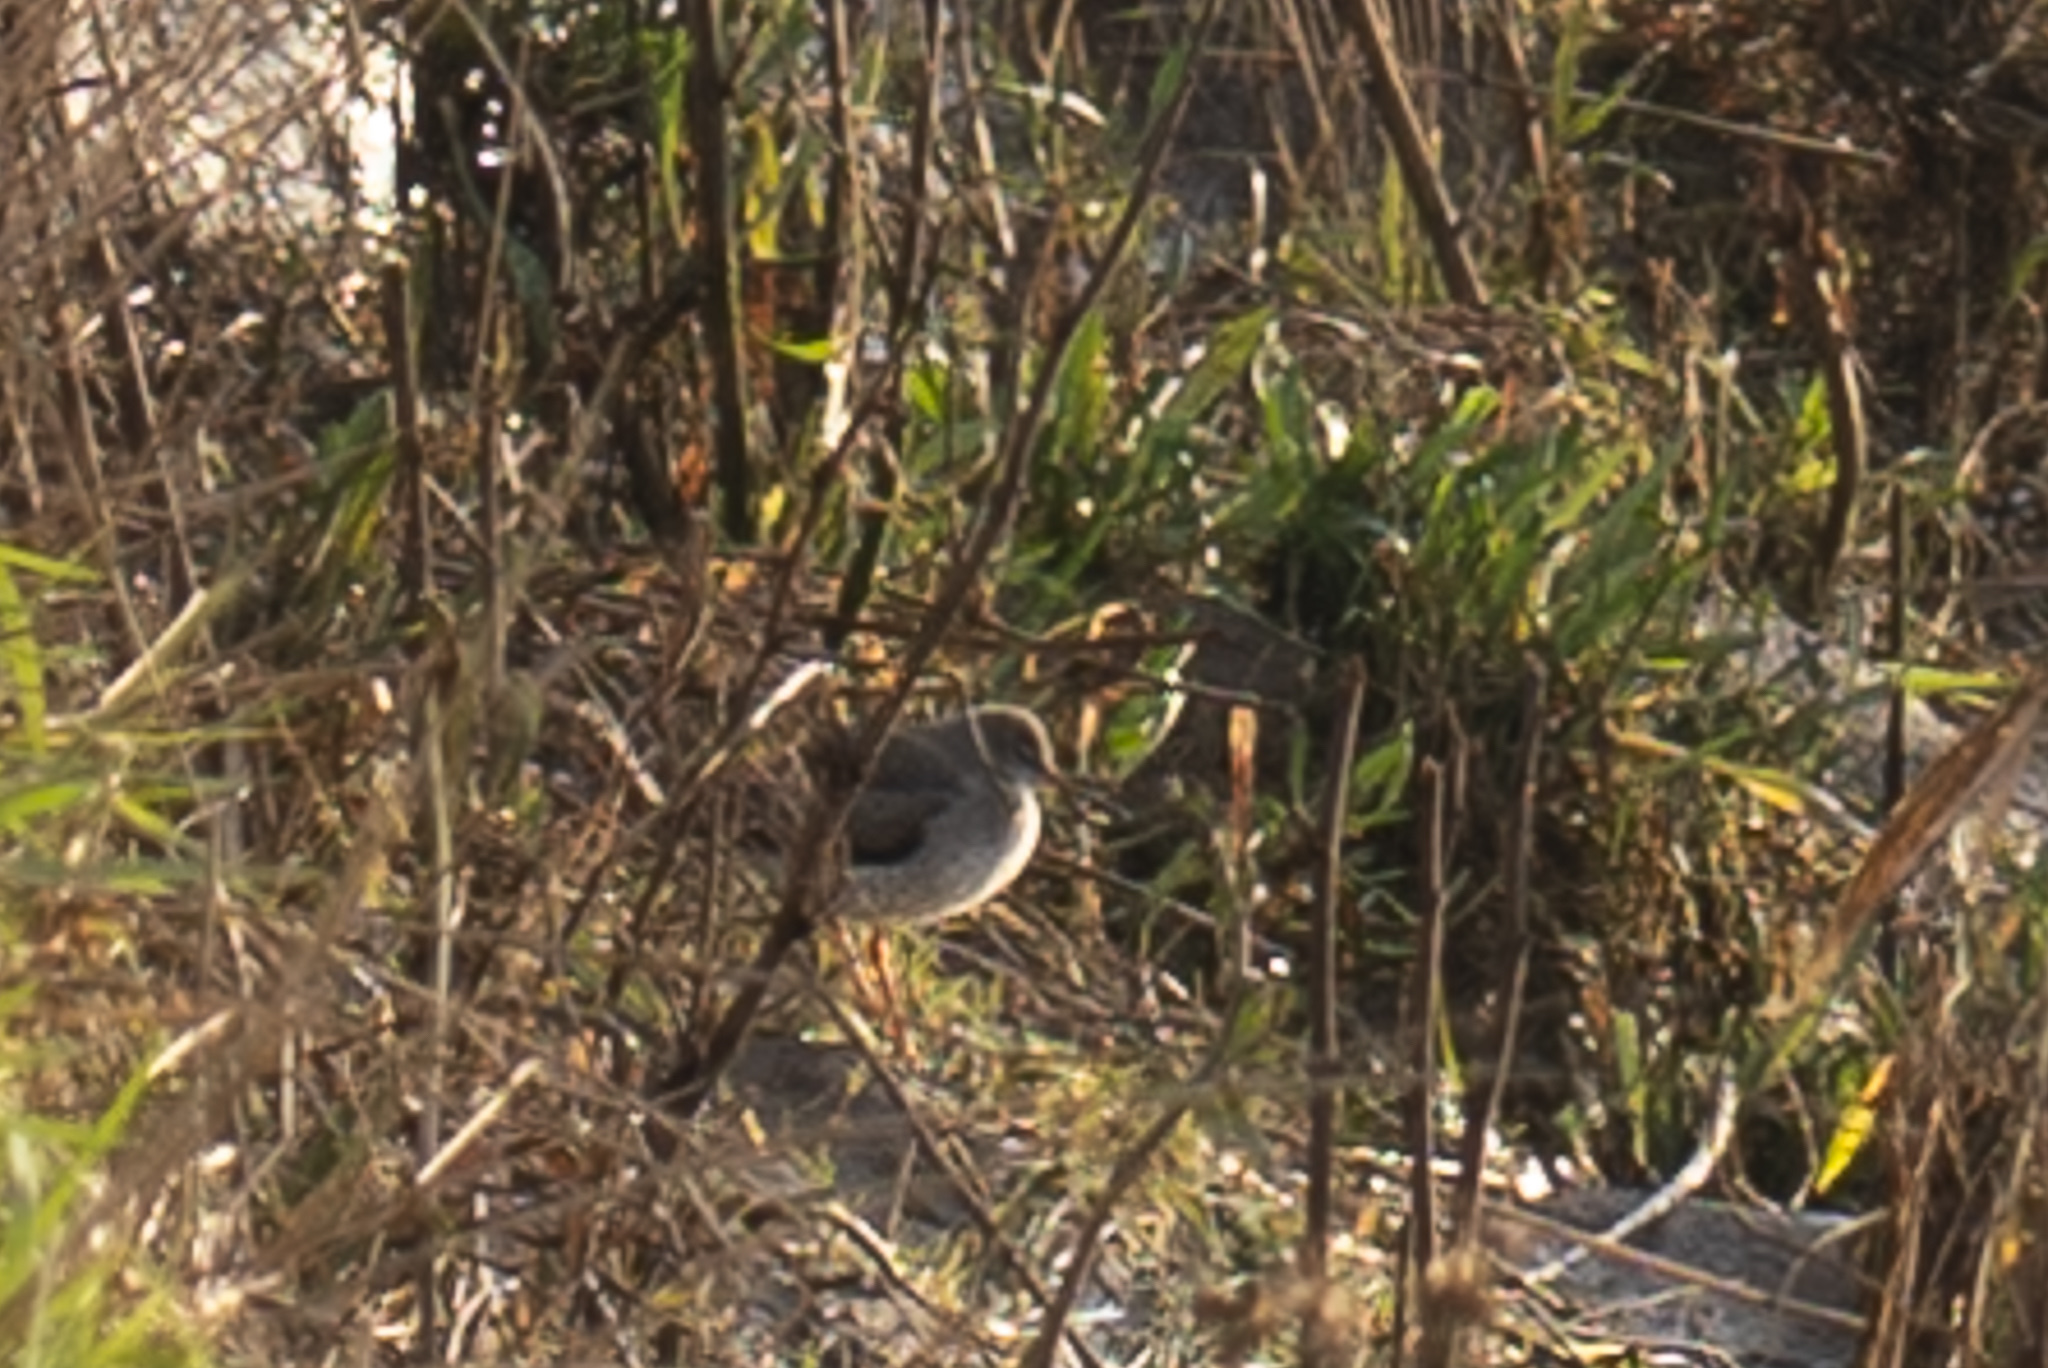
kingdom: Animalia
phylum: Chordata
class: Aves
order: Charadriiformes
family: Scolopacidae
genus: Tringa
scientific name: Tringa totanus
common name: Common redshank
